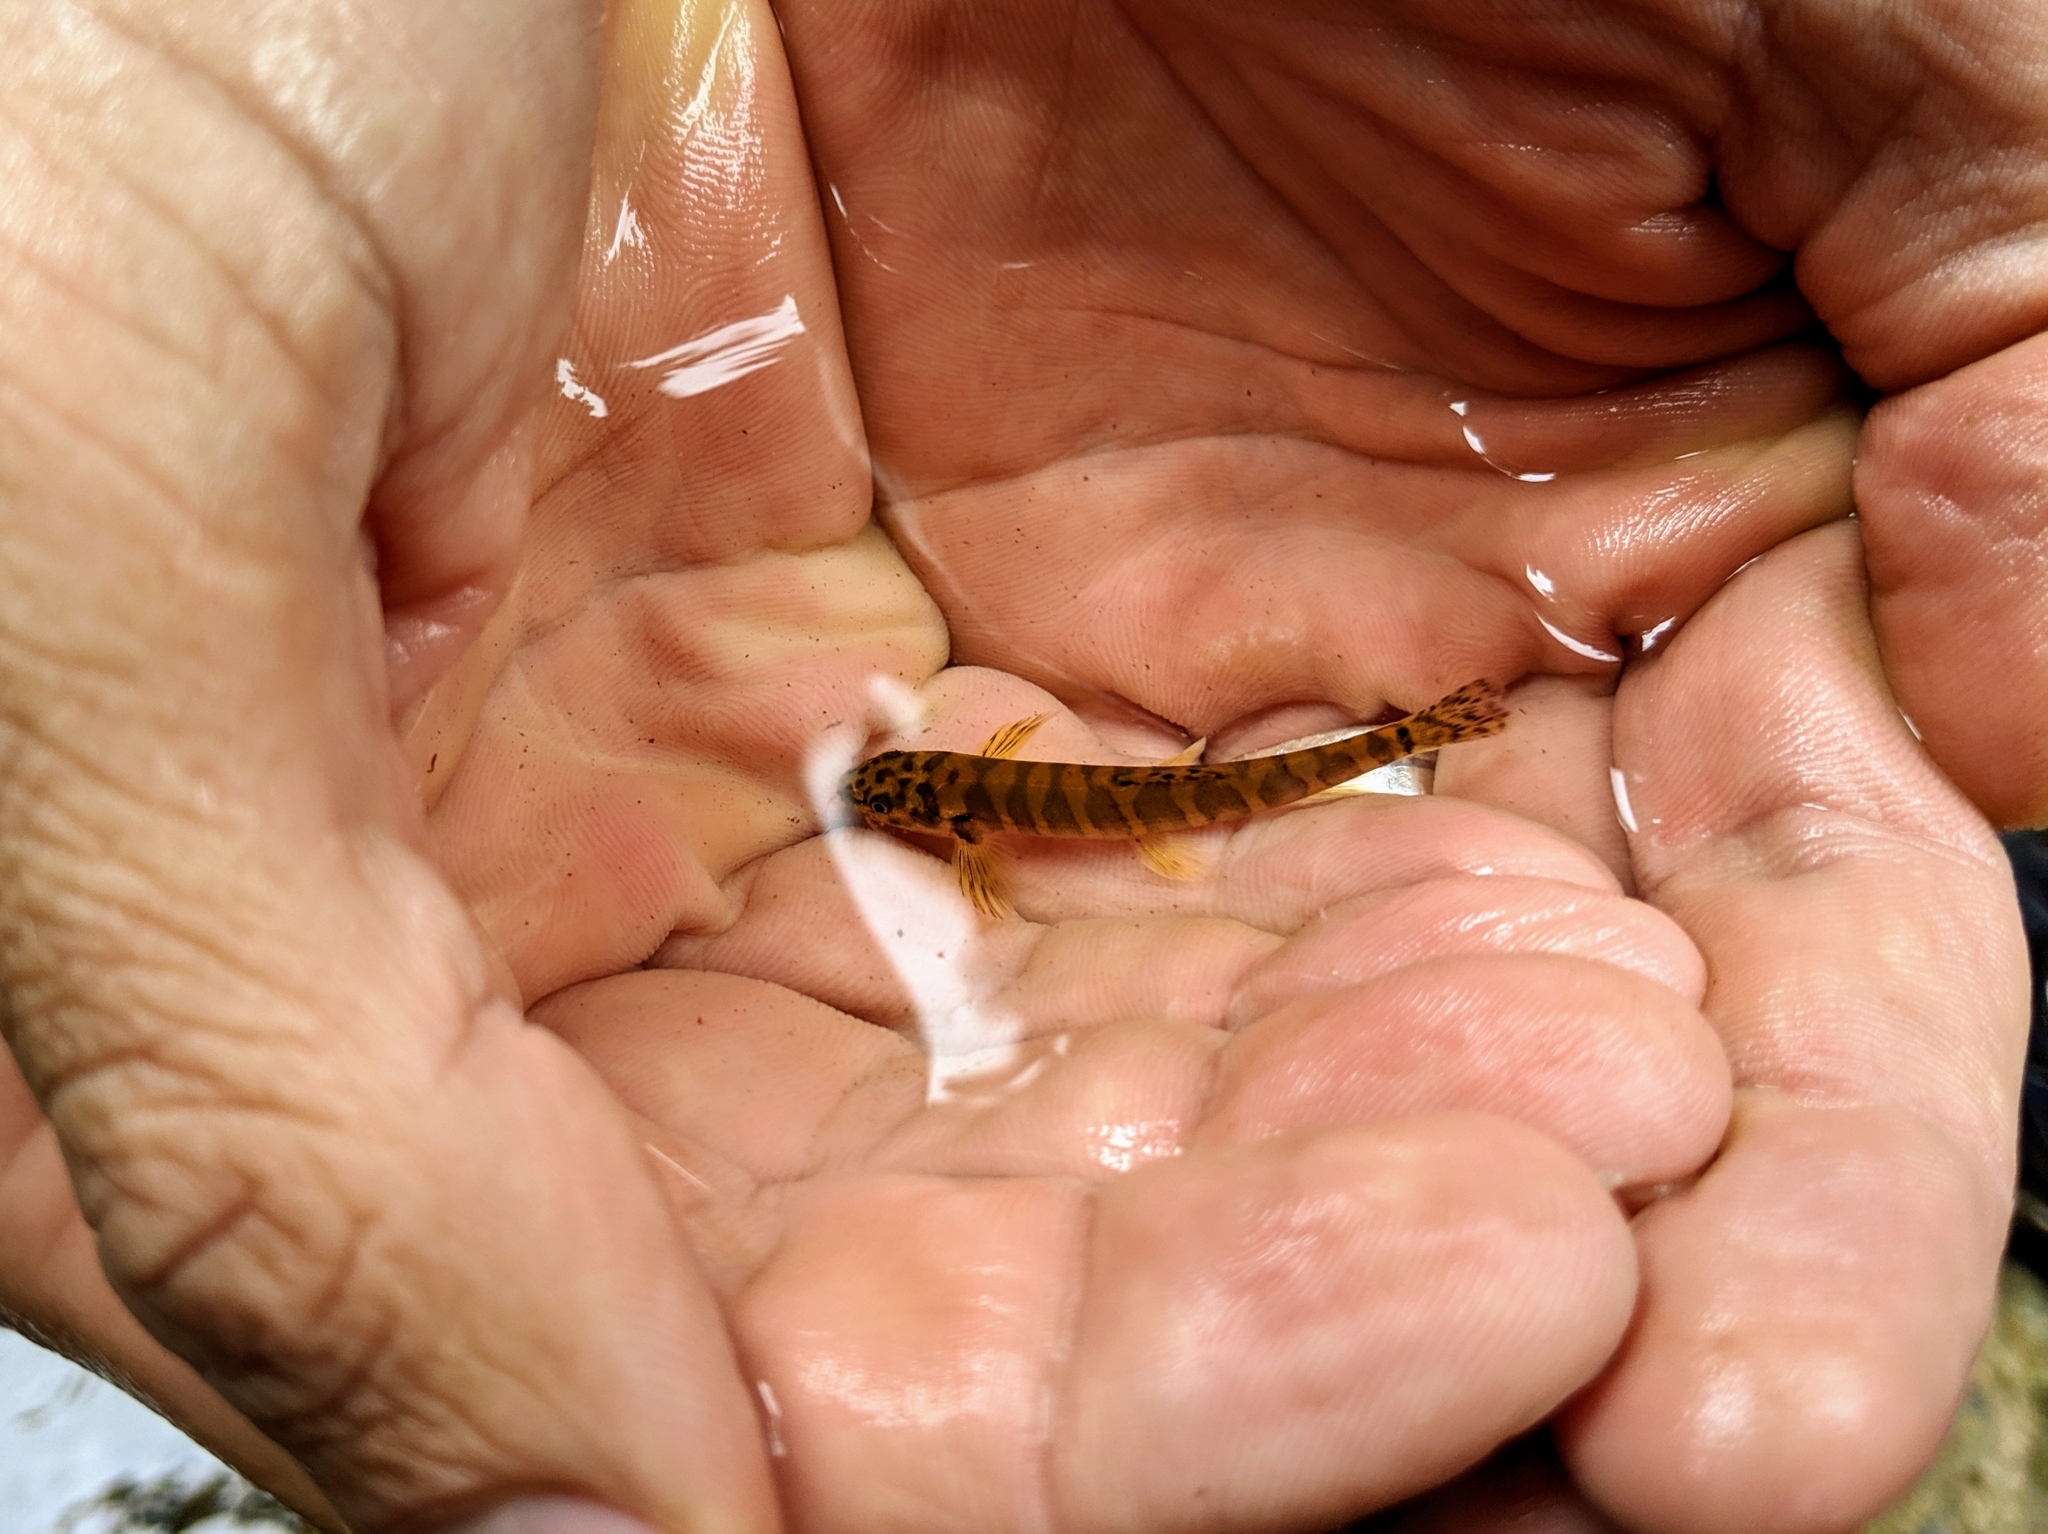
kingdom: Animalia
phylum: Chordata
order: Cypriniformes
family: Nemacheilidae
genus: Schistura
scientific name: Schistura kohchangensis
